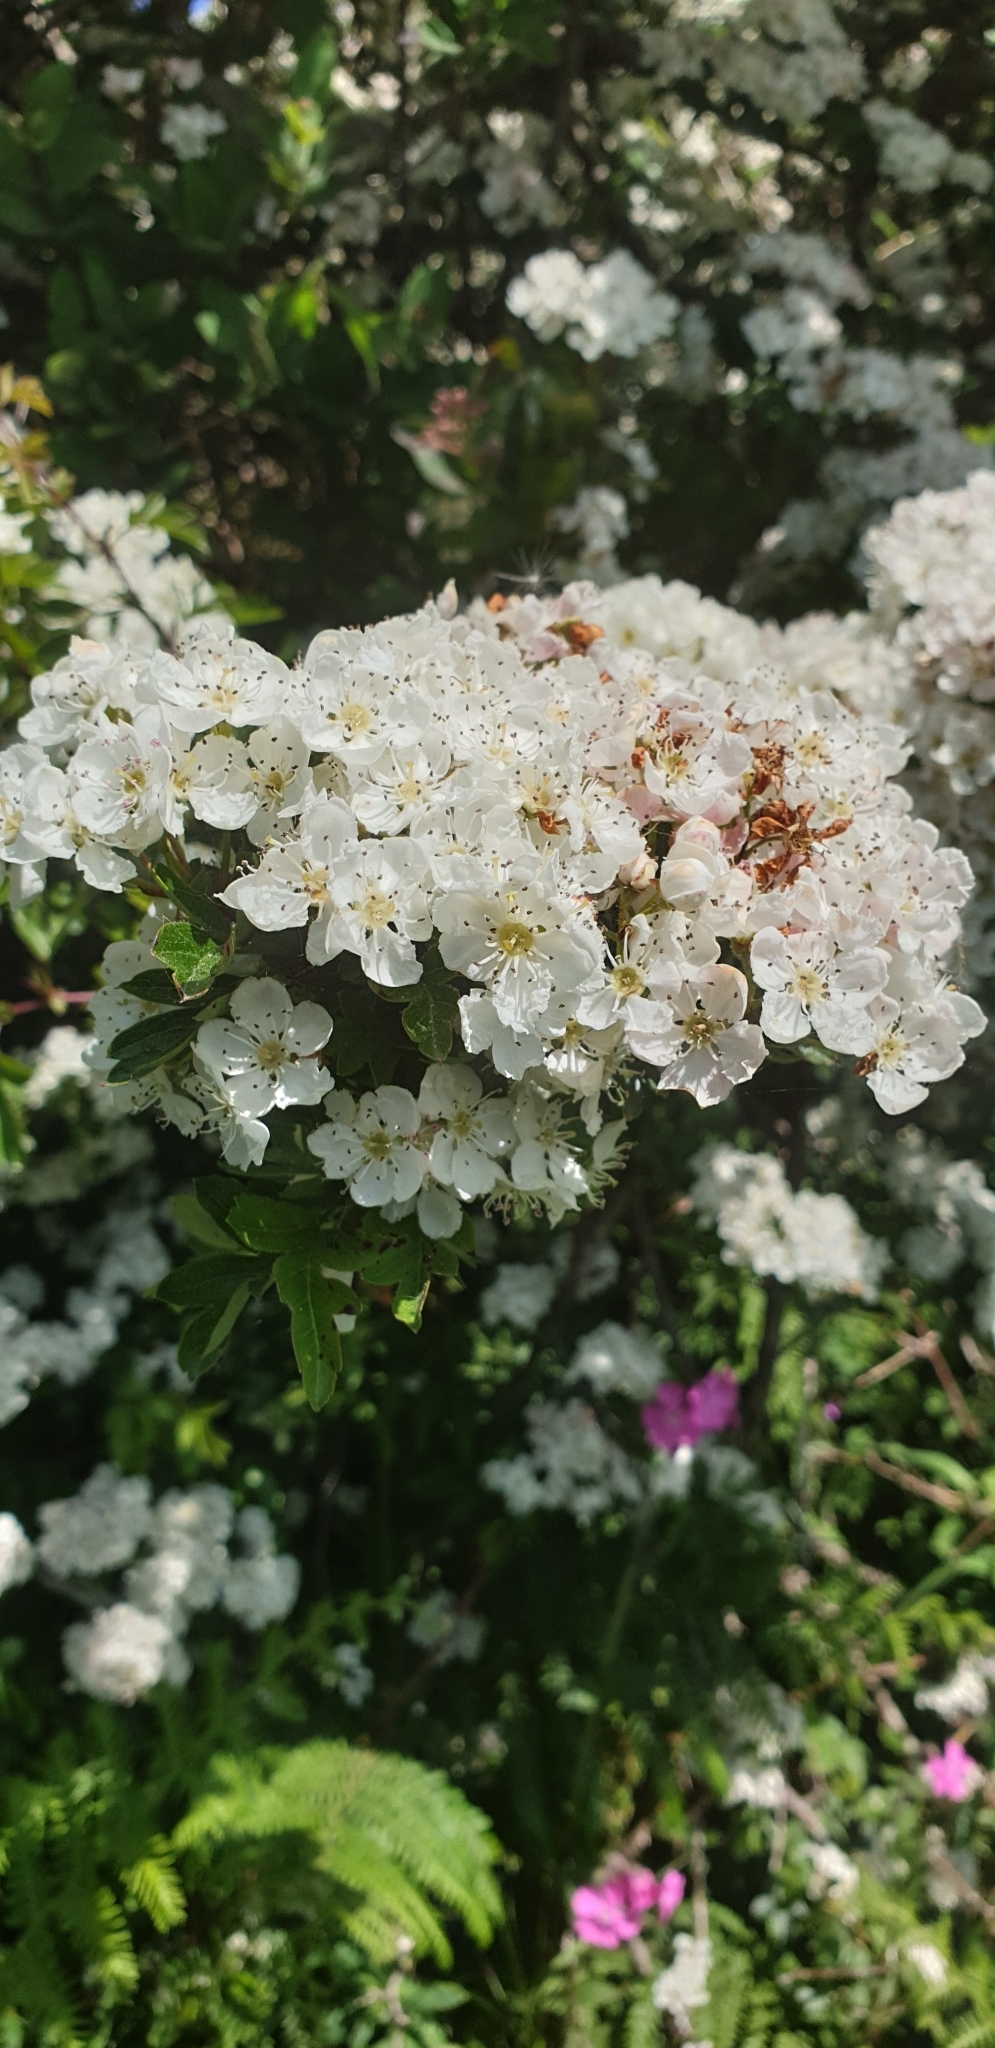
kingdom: Plantae
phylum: Tracheophyta
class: Magnoliopsida
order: Rosales
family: Rosaceae
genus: Crataegus
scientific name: Crataegus monogyna
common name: Hawthorn
